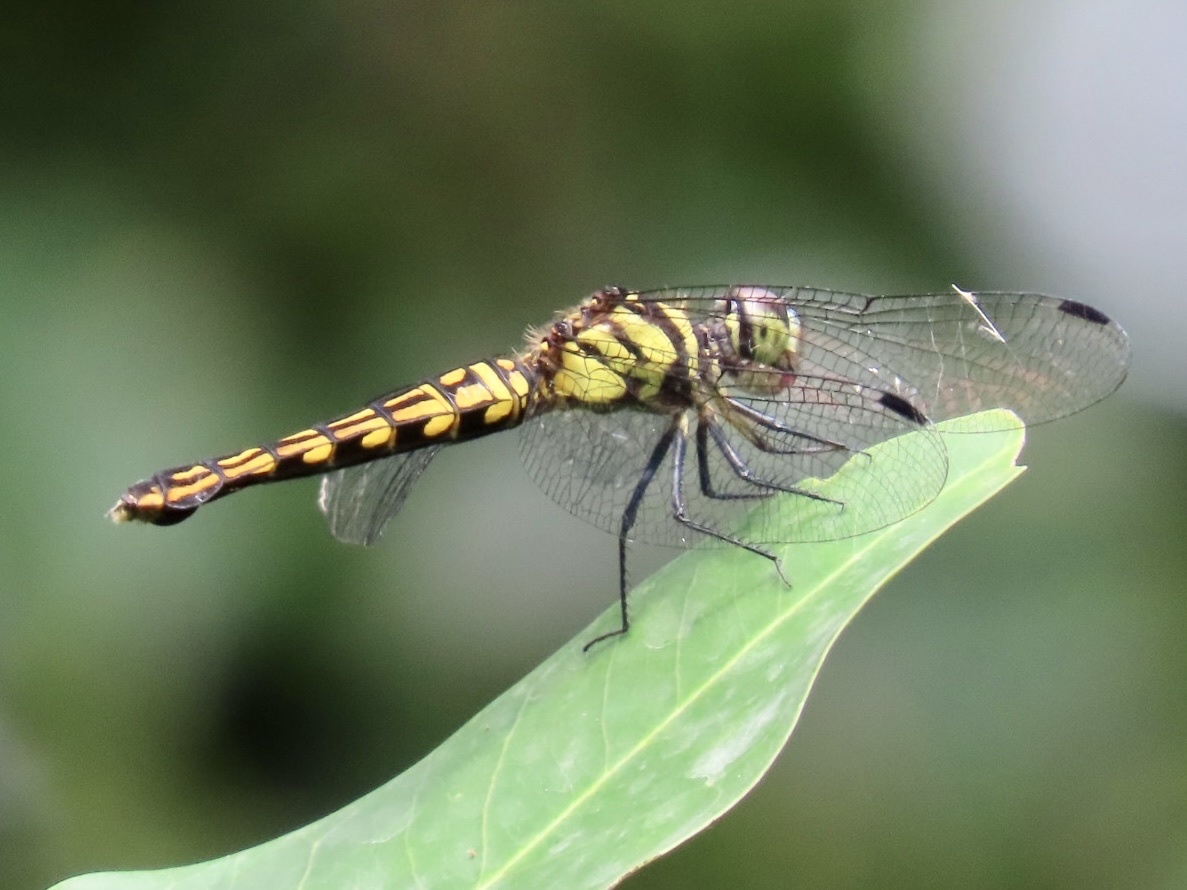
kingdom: Animalia
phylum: Arthropoda
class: Insecta
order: Odonata
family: Libellulidae
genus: Lyriothemis
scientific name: Lyriothemis elegantissima
